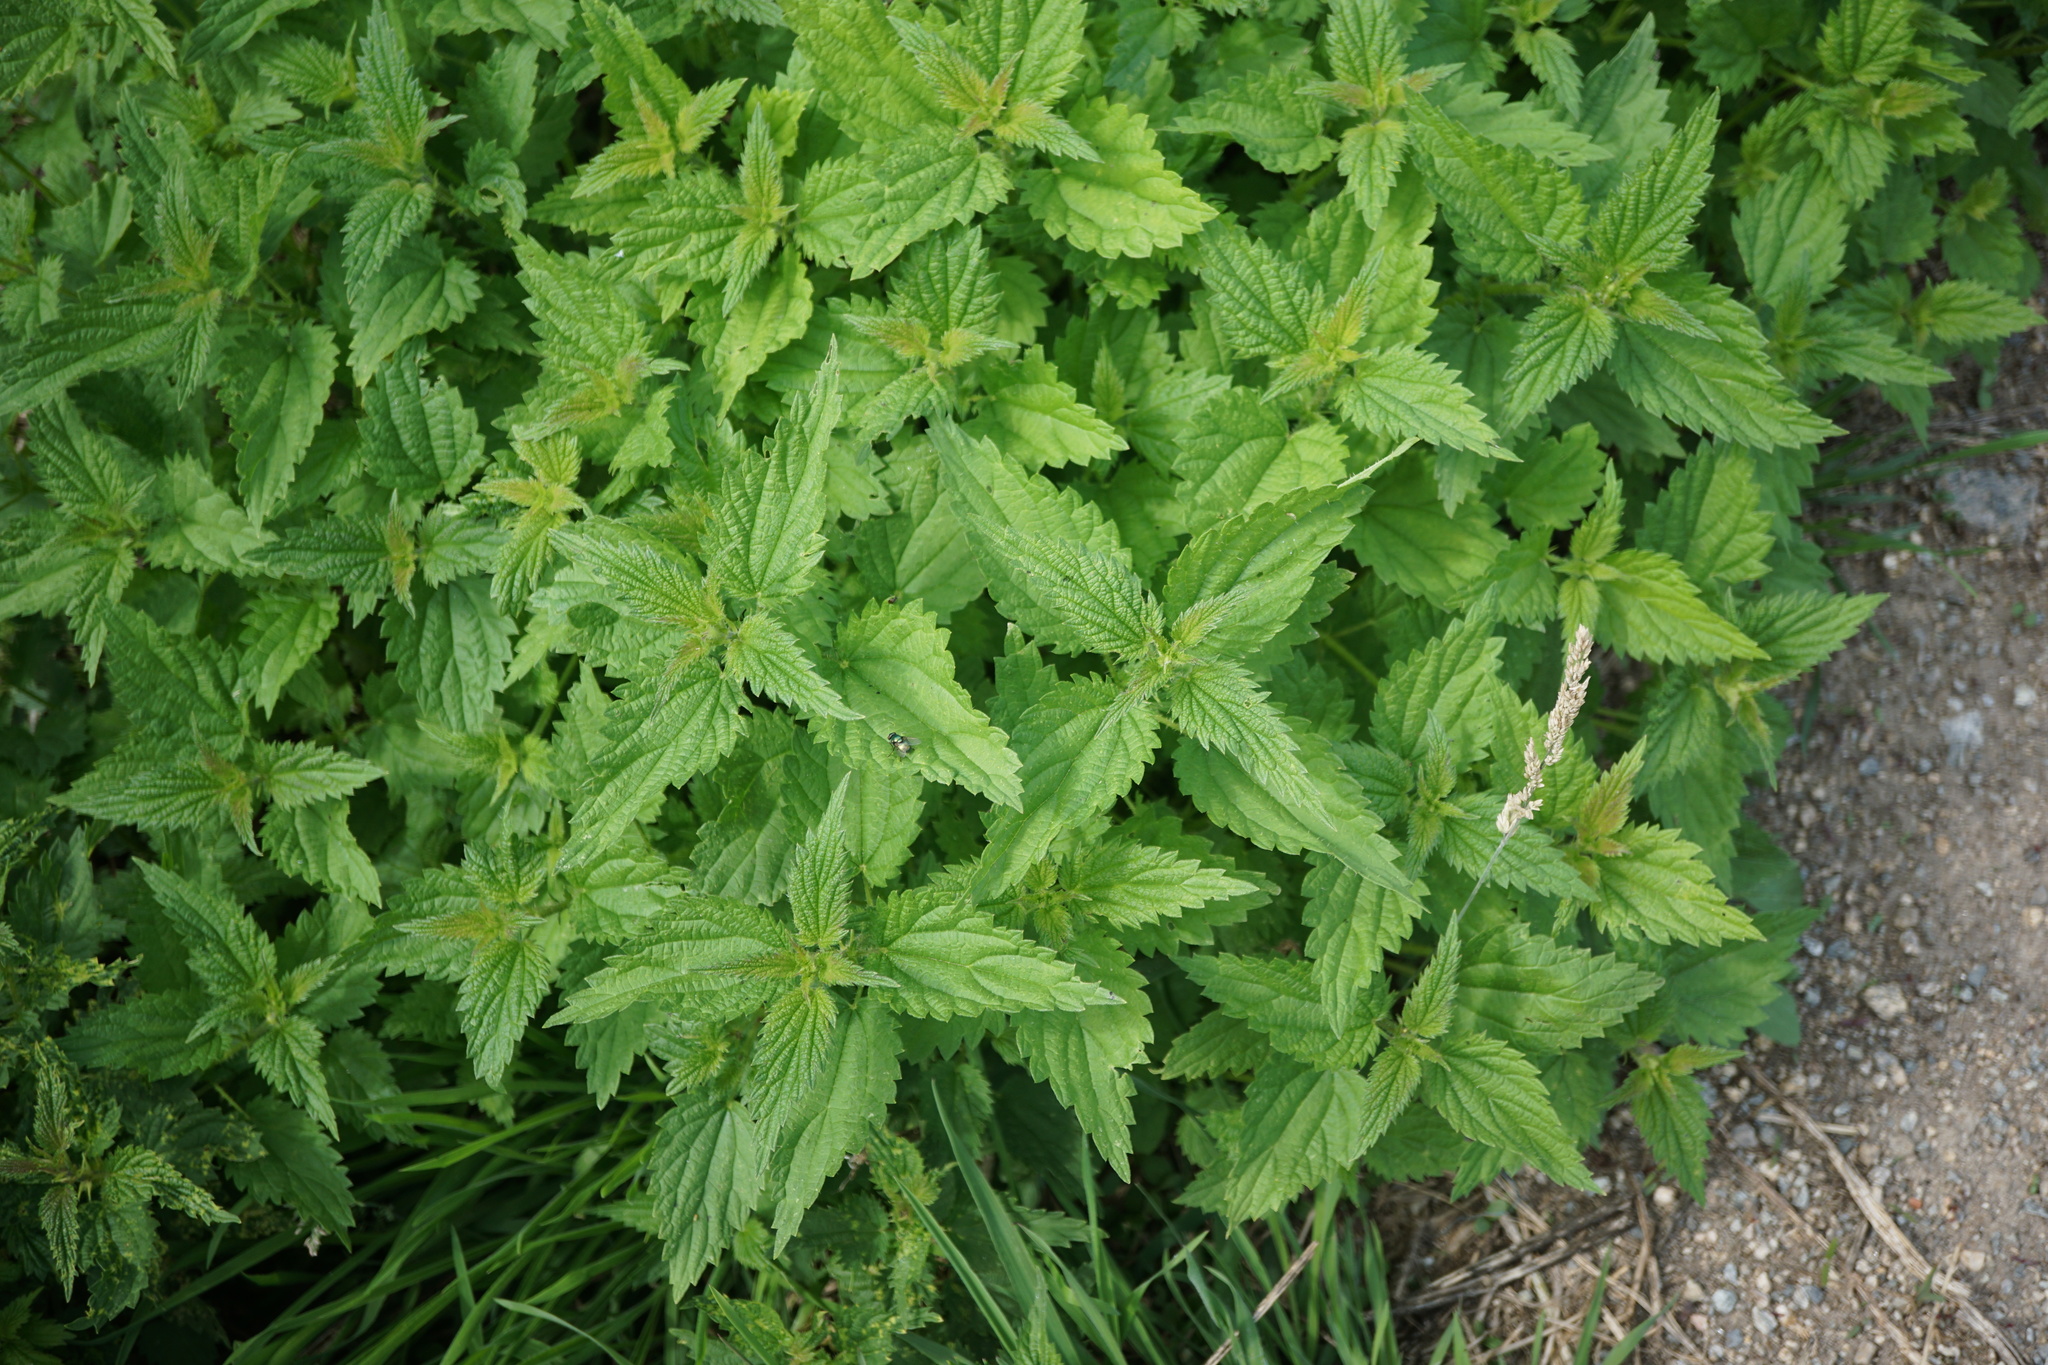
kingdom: Plantae
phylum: Tracheophyta
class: Magnoliopsida
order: Rosales
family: Urticaceae
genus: Urtica
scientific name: Urtica dioica
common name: Common nettle
